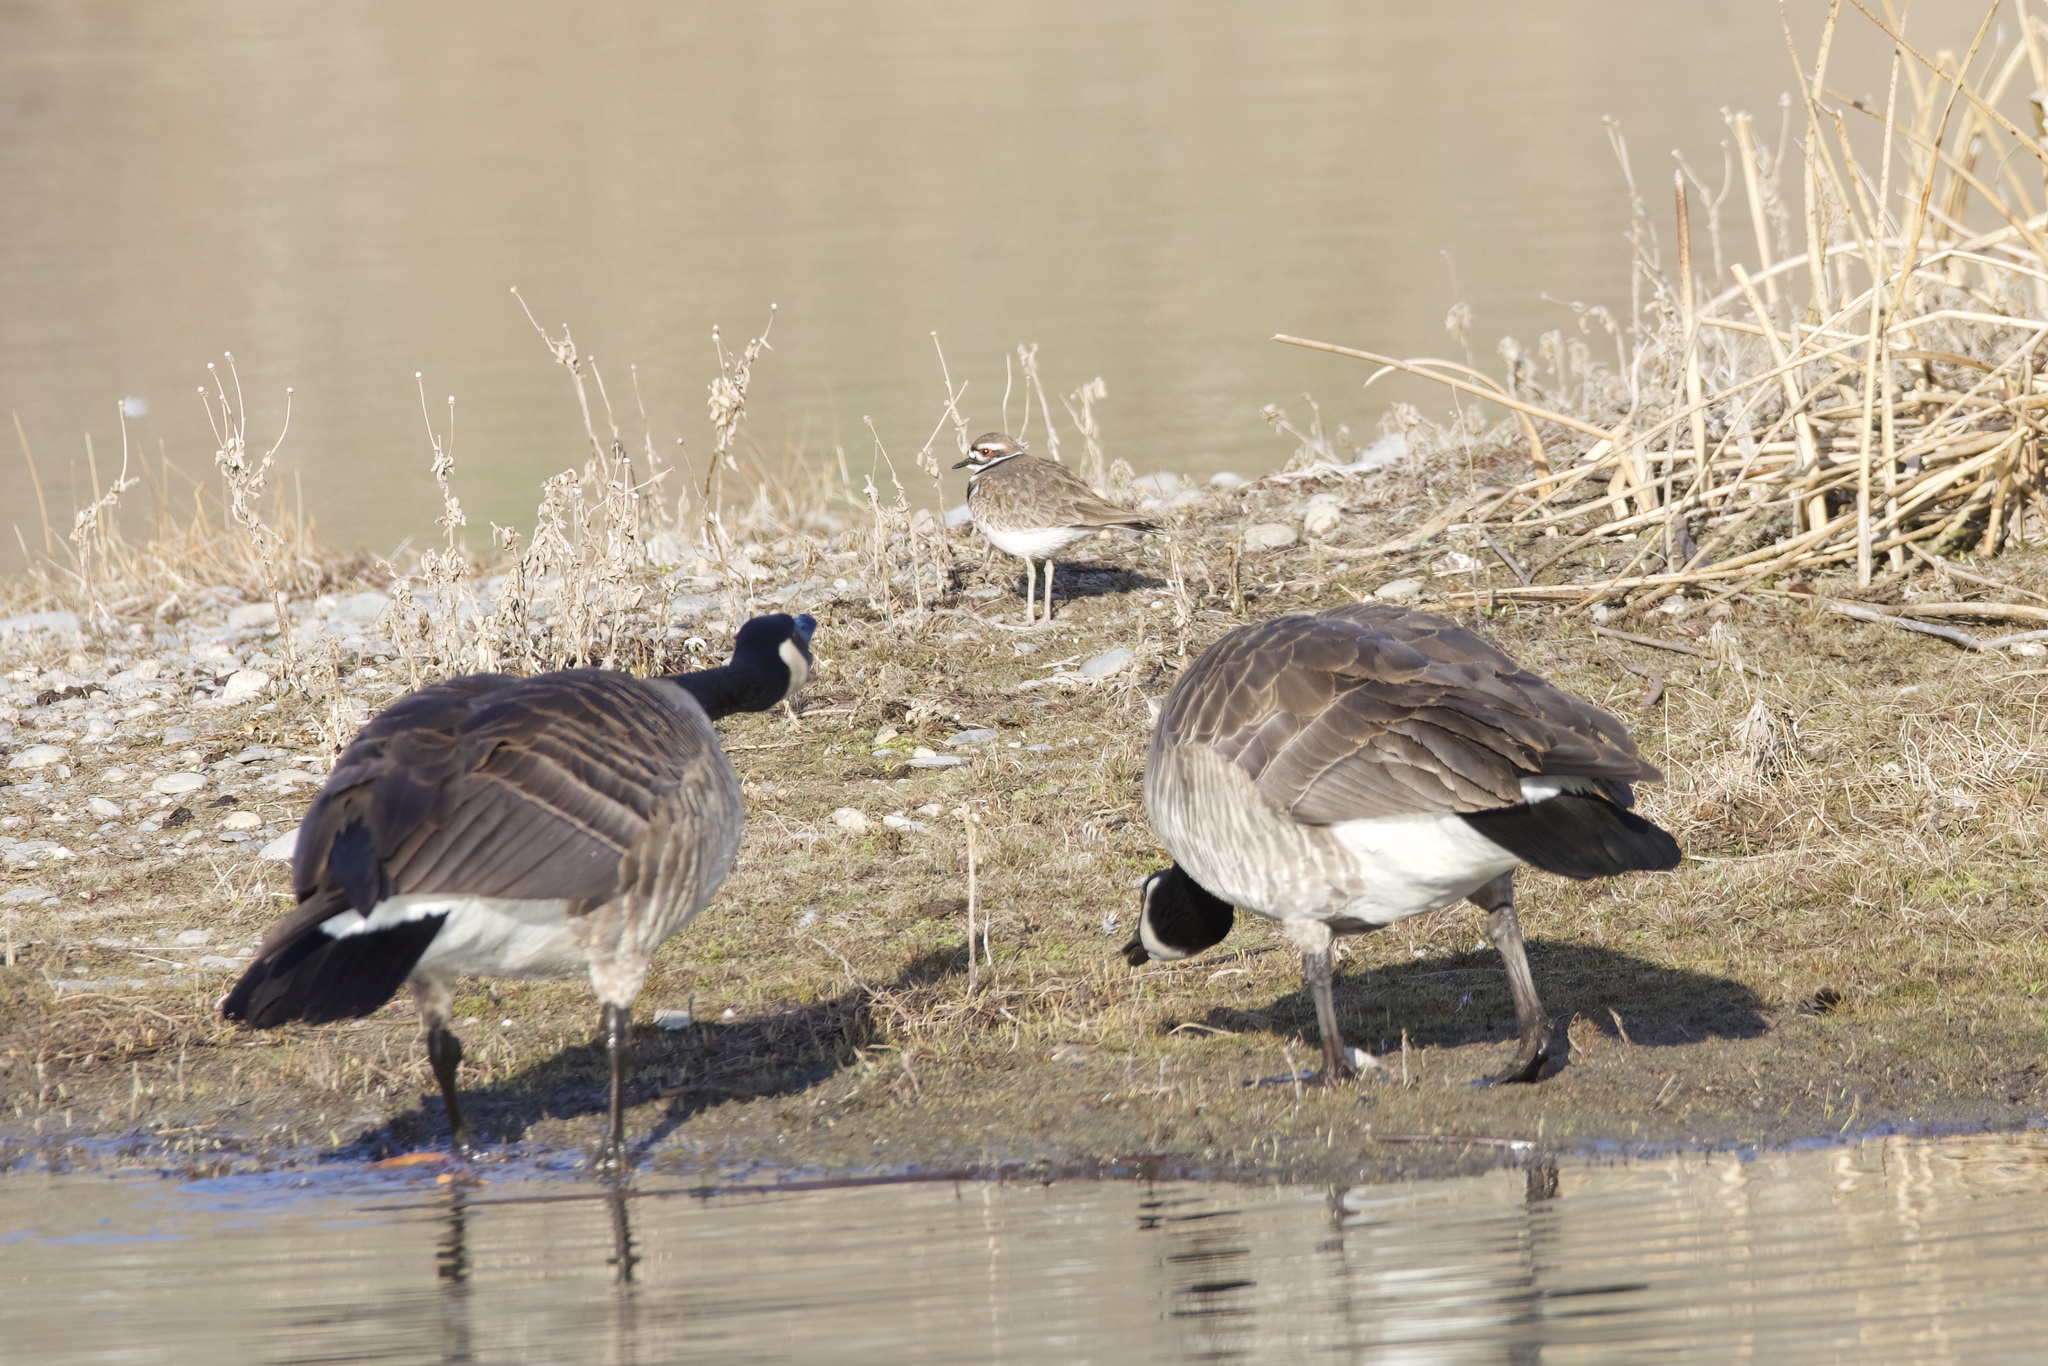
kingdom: Animalia
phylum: Chordata
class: Aves
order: Charadriiformes
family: Charadriidae
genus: Charadrius
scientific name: Charadrius vociferus
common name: Killdeer
